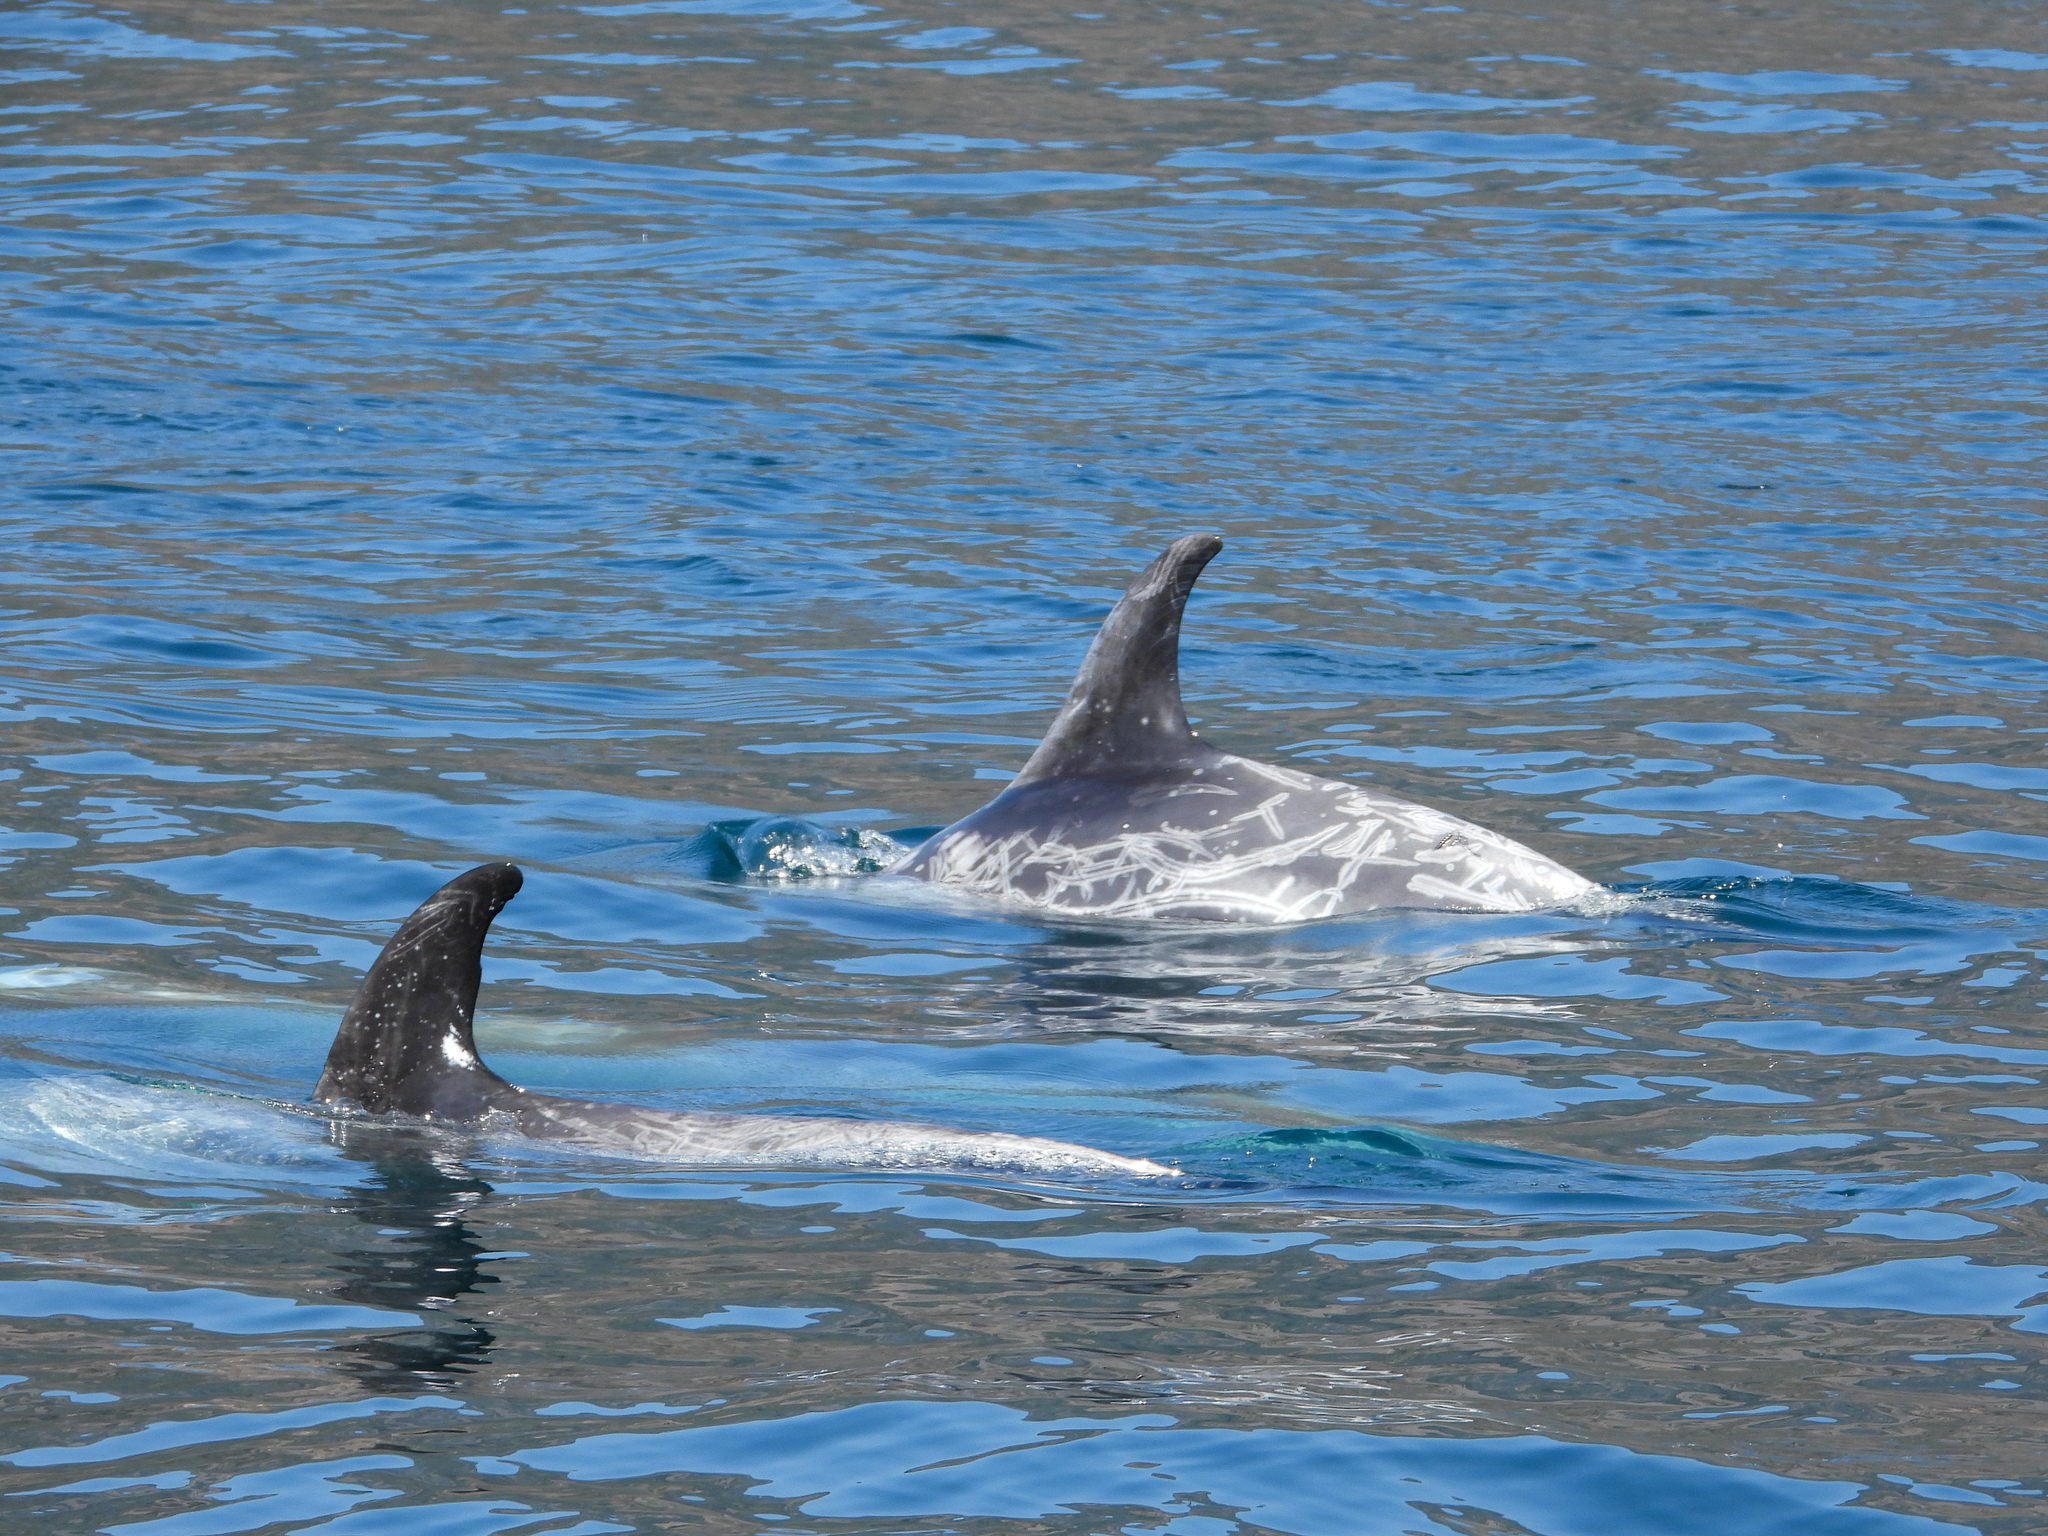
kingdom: Animalia
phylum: Chordata
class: Mammalia
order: Cetacea
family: Delphinidae
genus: Grampus
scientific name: Grampus griseus
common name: Risso's dolphin
